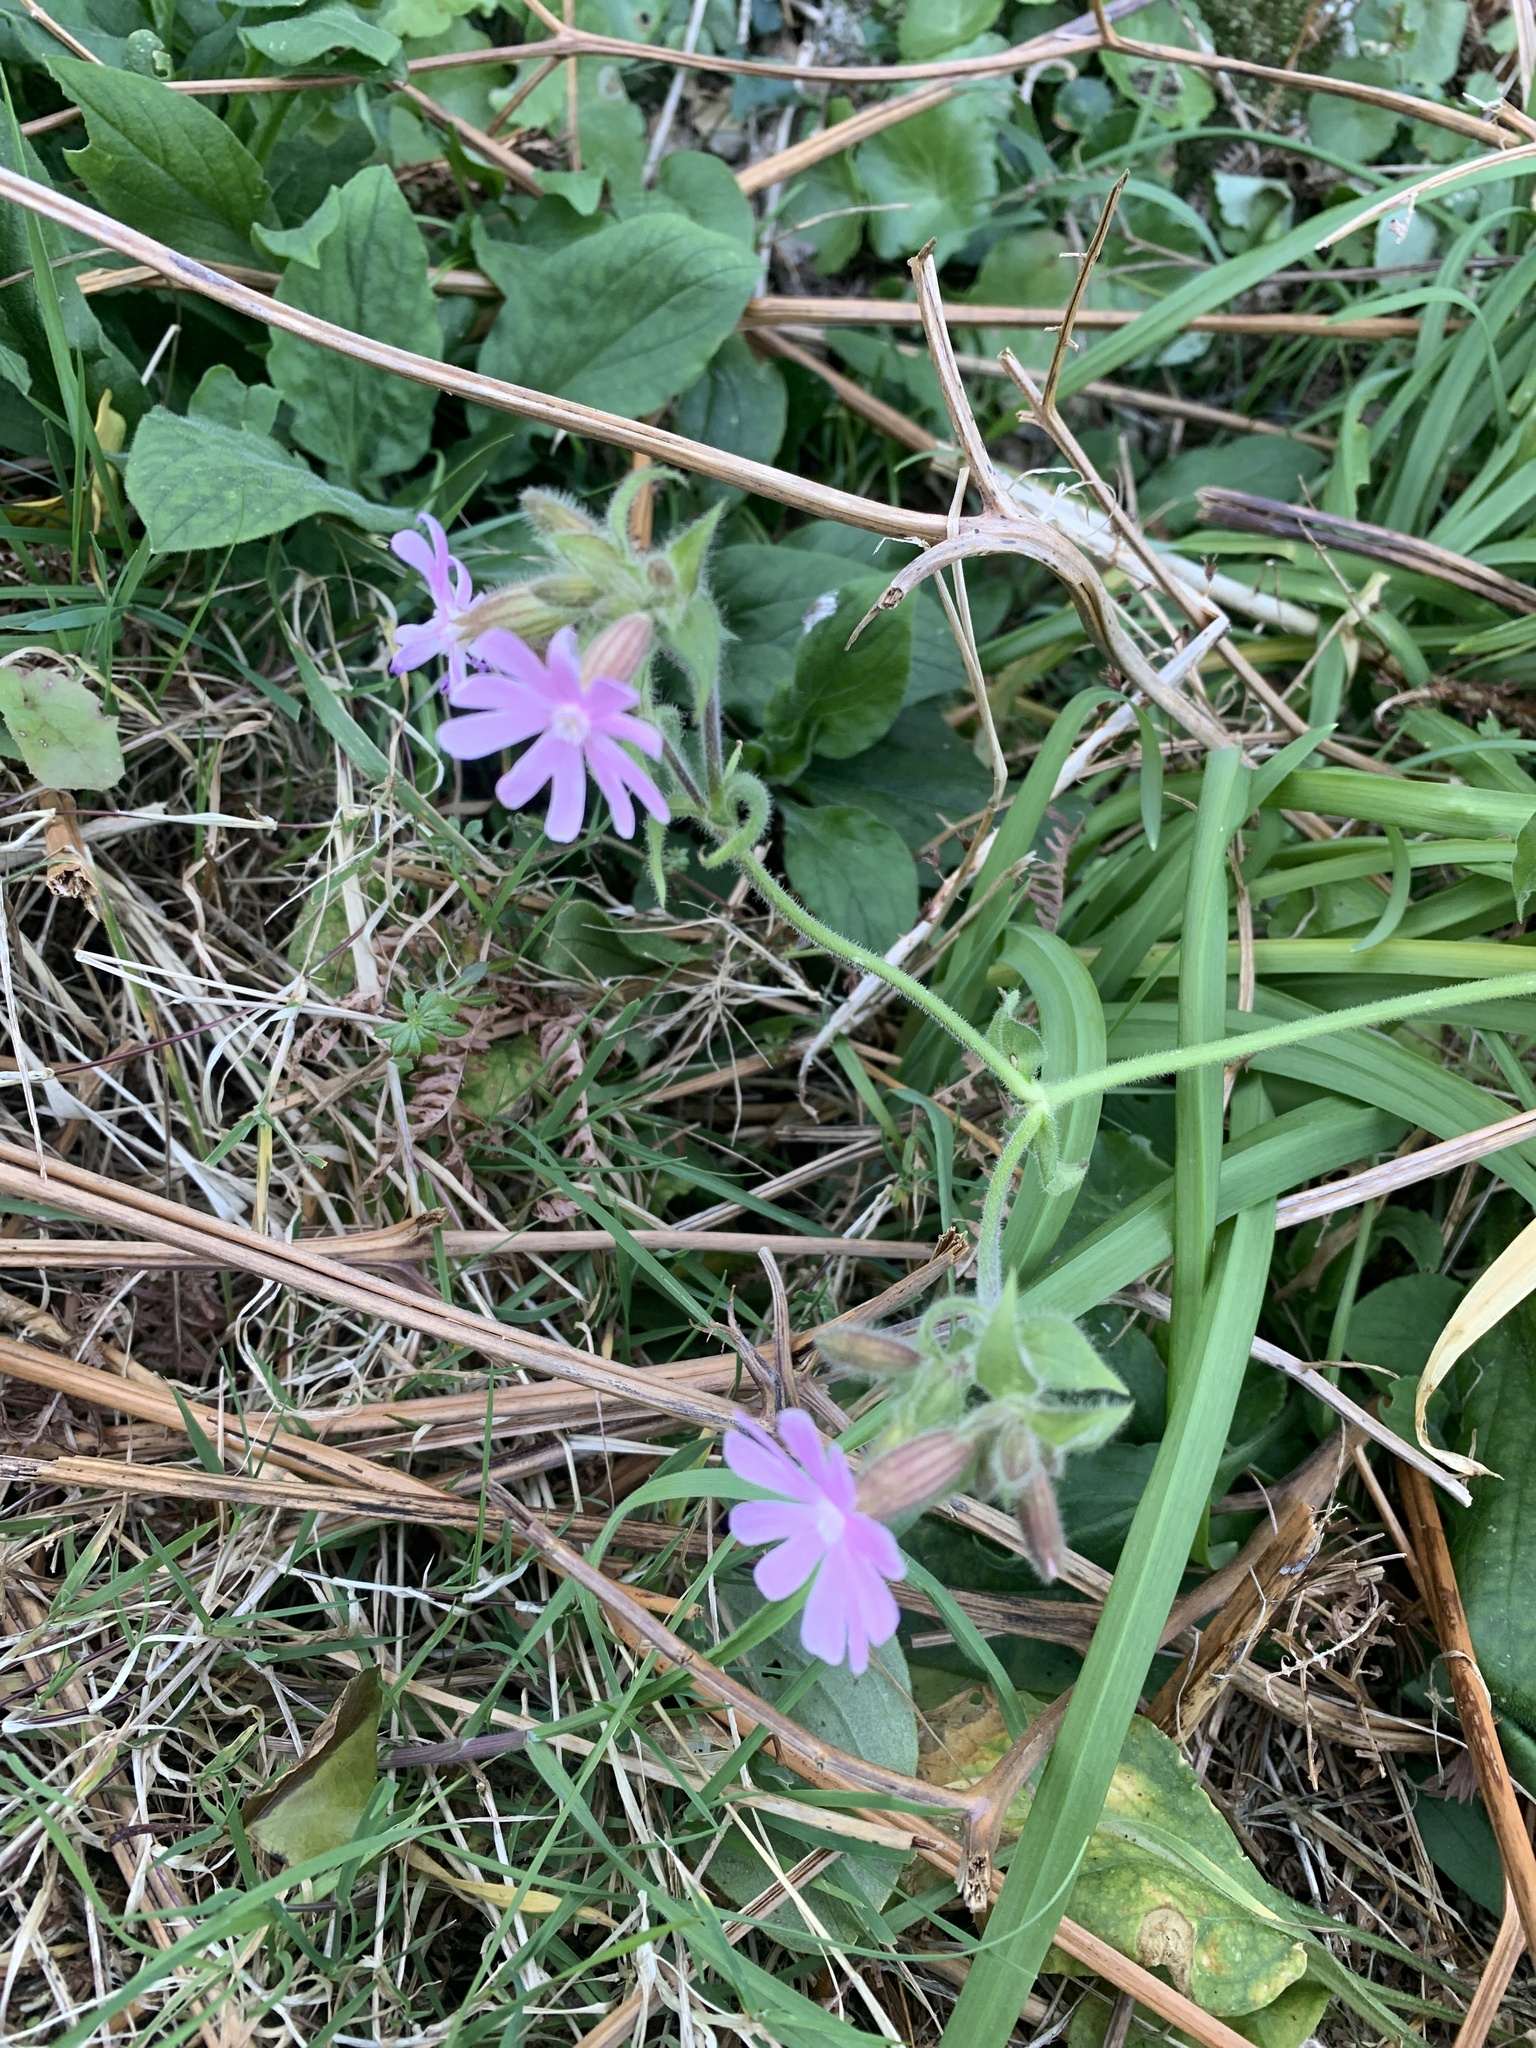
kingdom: Plantae
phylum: Tracheophyta
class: Magnoliopsida
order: Caryophyllales
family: Caryophyllaceae
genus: Silene
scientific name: Silene dioica
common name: Red campion
